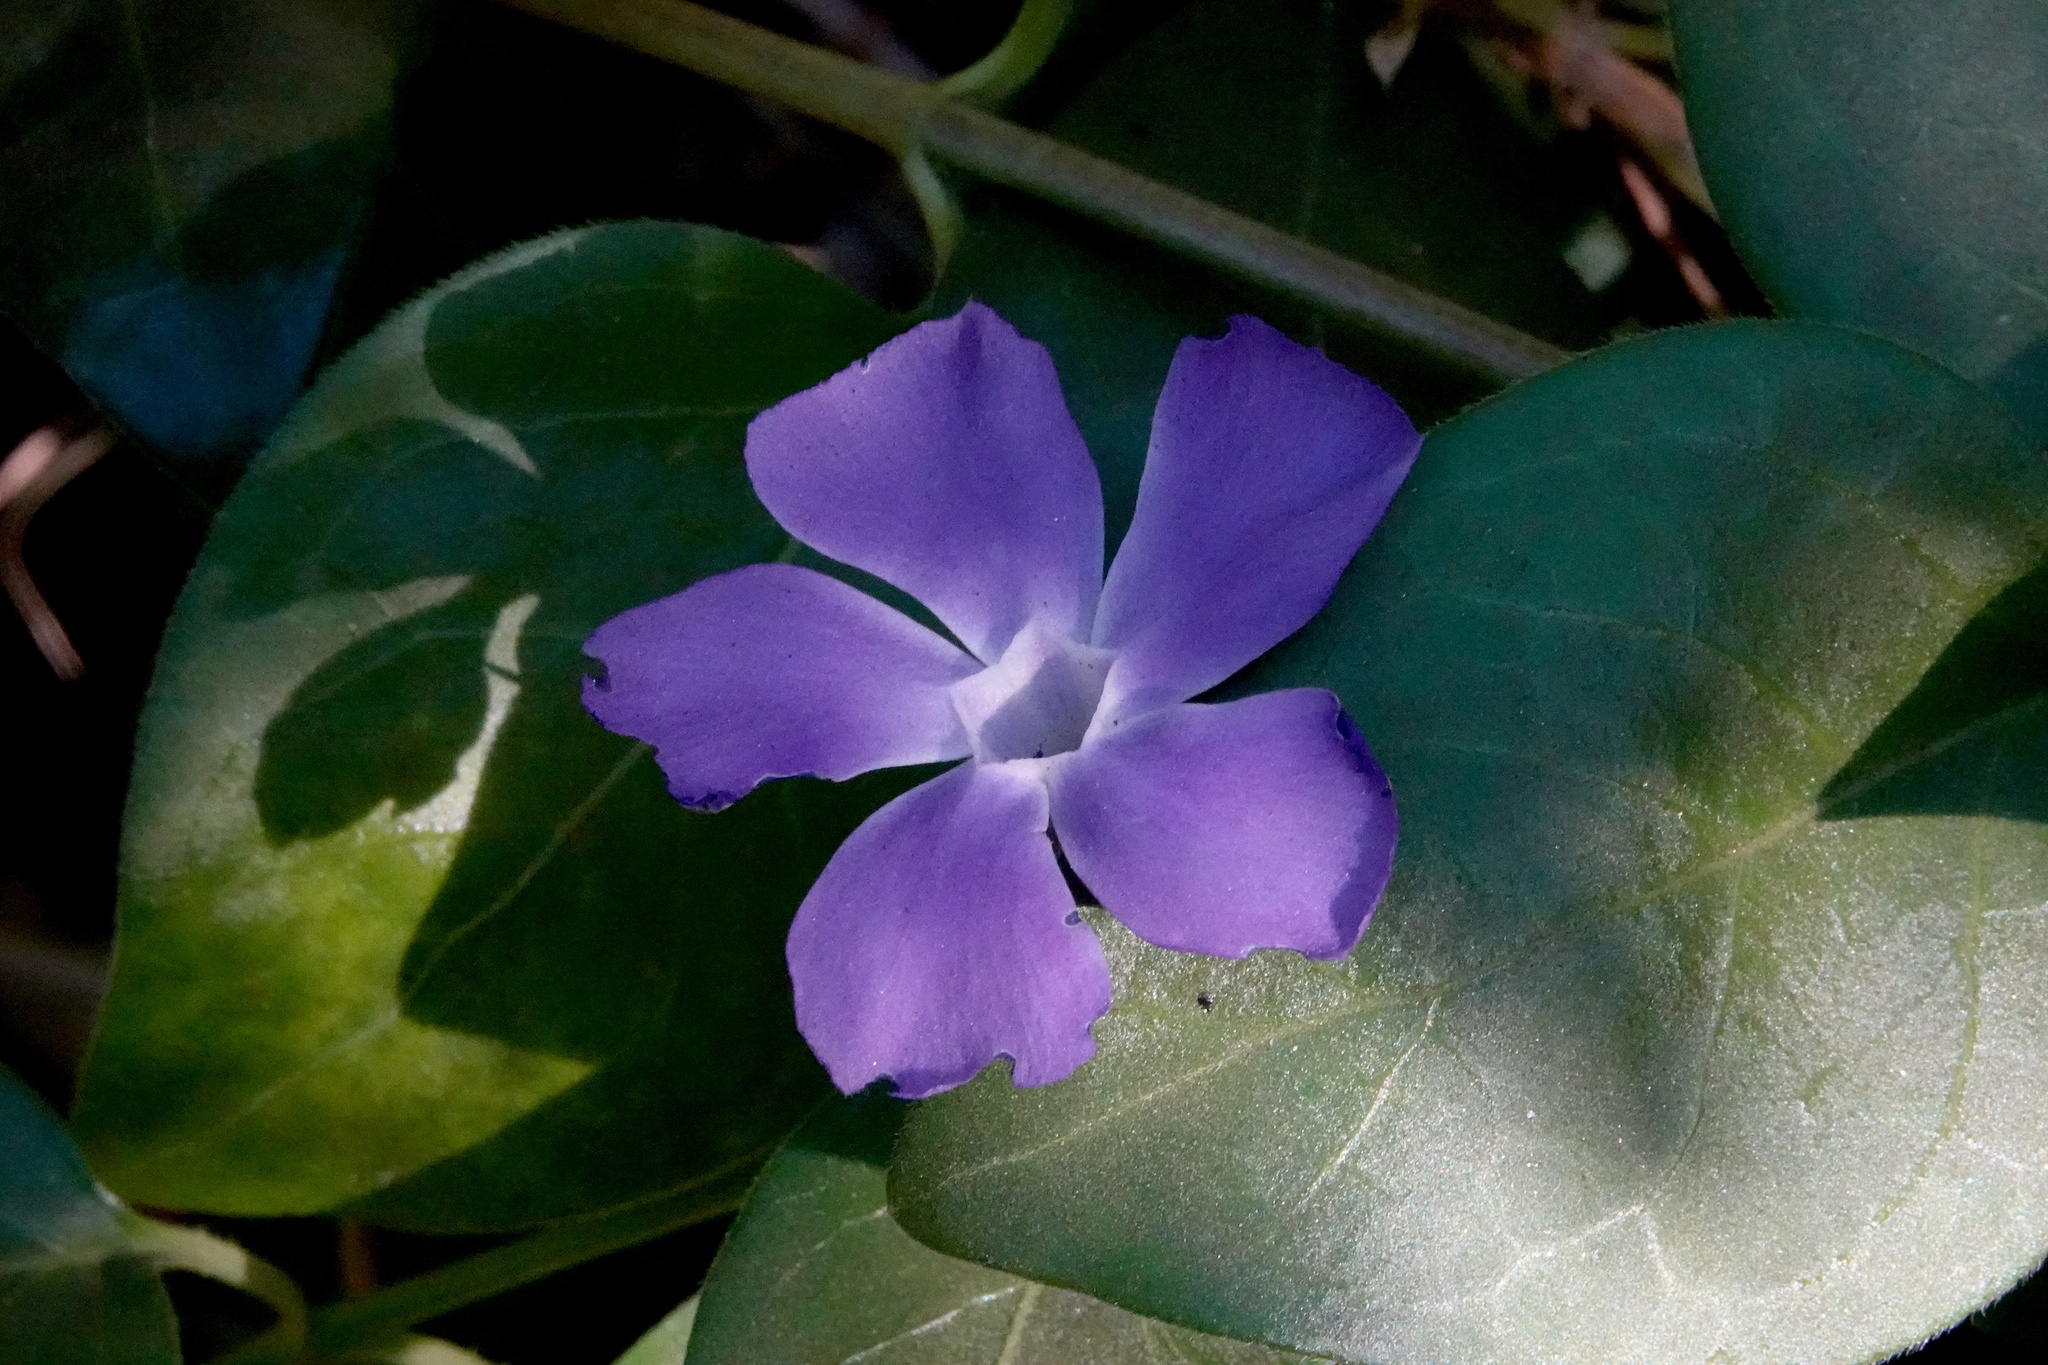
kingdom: Plantae
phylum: Tracheophyta
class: Magnoliopsida
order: Gentianales
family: Apocynaceae
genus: Vinca
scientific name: Vinca major
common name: Greater periwinkle
